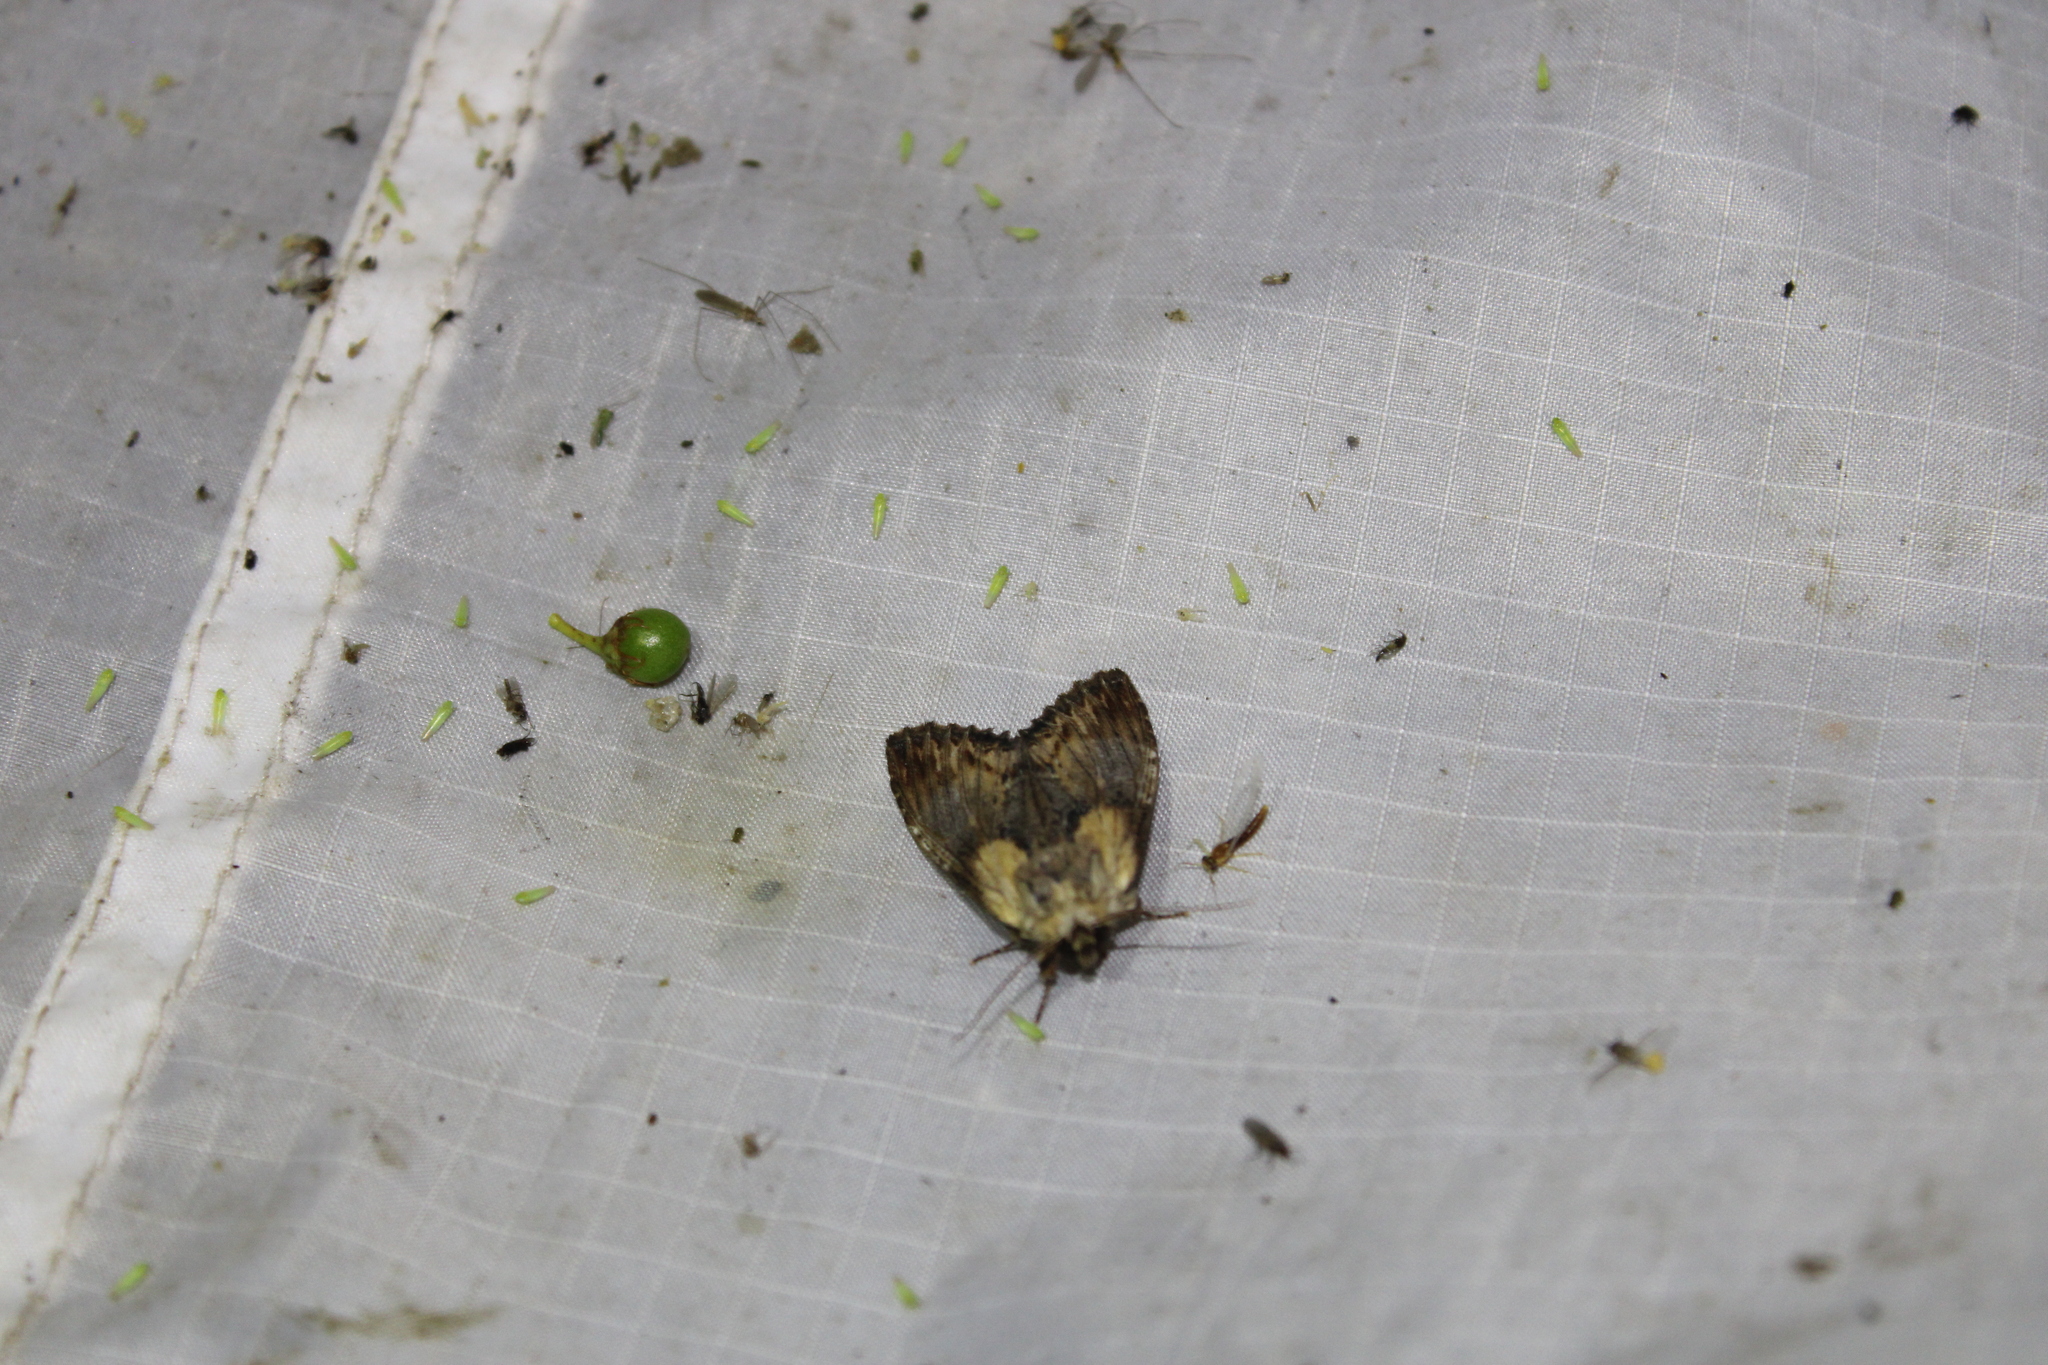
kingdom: Animalia
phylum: Arthropoda
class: Insecta
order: Lepidoptera
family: Notodontidae
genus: Dasylophia
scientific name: Dasylophia thyatiroides
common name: Gray-patched prominent
